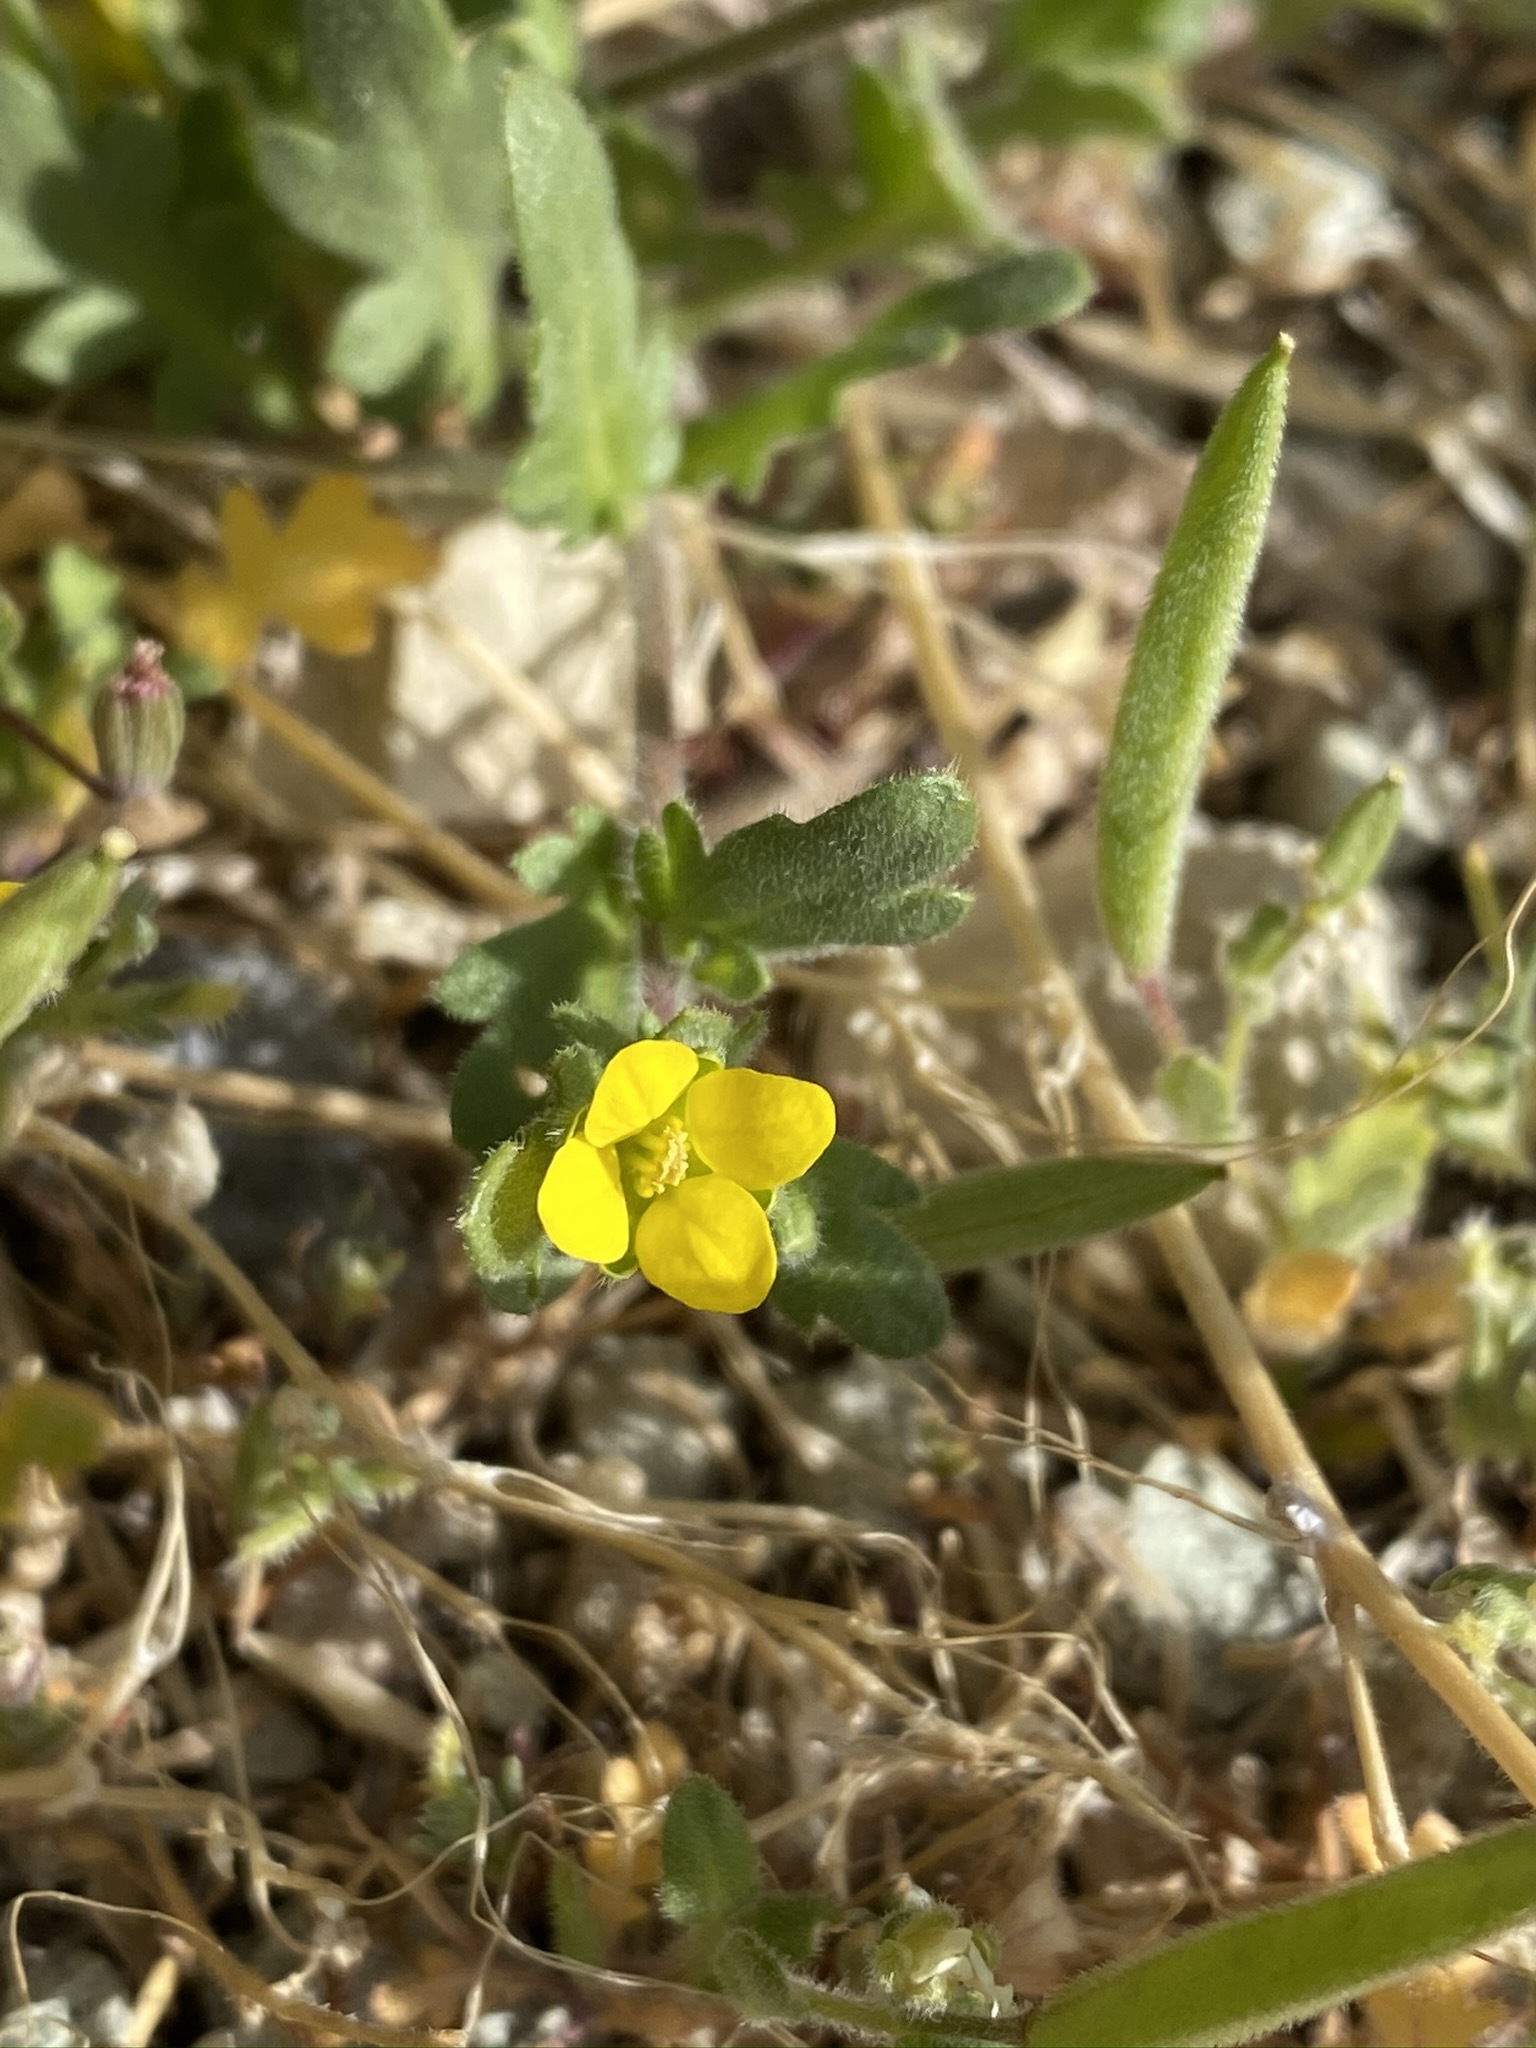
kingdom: Plantae
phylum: Tracheophyta
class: Magnoliopsida
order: Brassicales
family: Brassicaceae
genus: Tropidocarpum
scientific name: Tropidocarpum gracile
